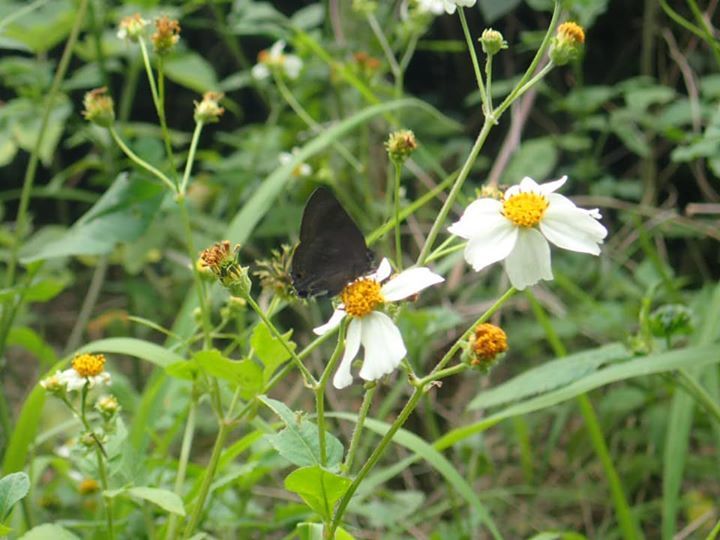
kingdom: Animalia
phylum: Arthropoda
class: Insecta
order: Lepidoptera
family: Lycaenidae
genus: Rapala
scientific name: Rapala varuna
